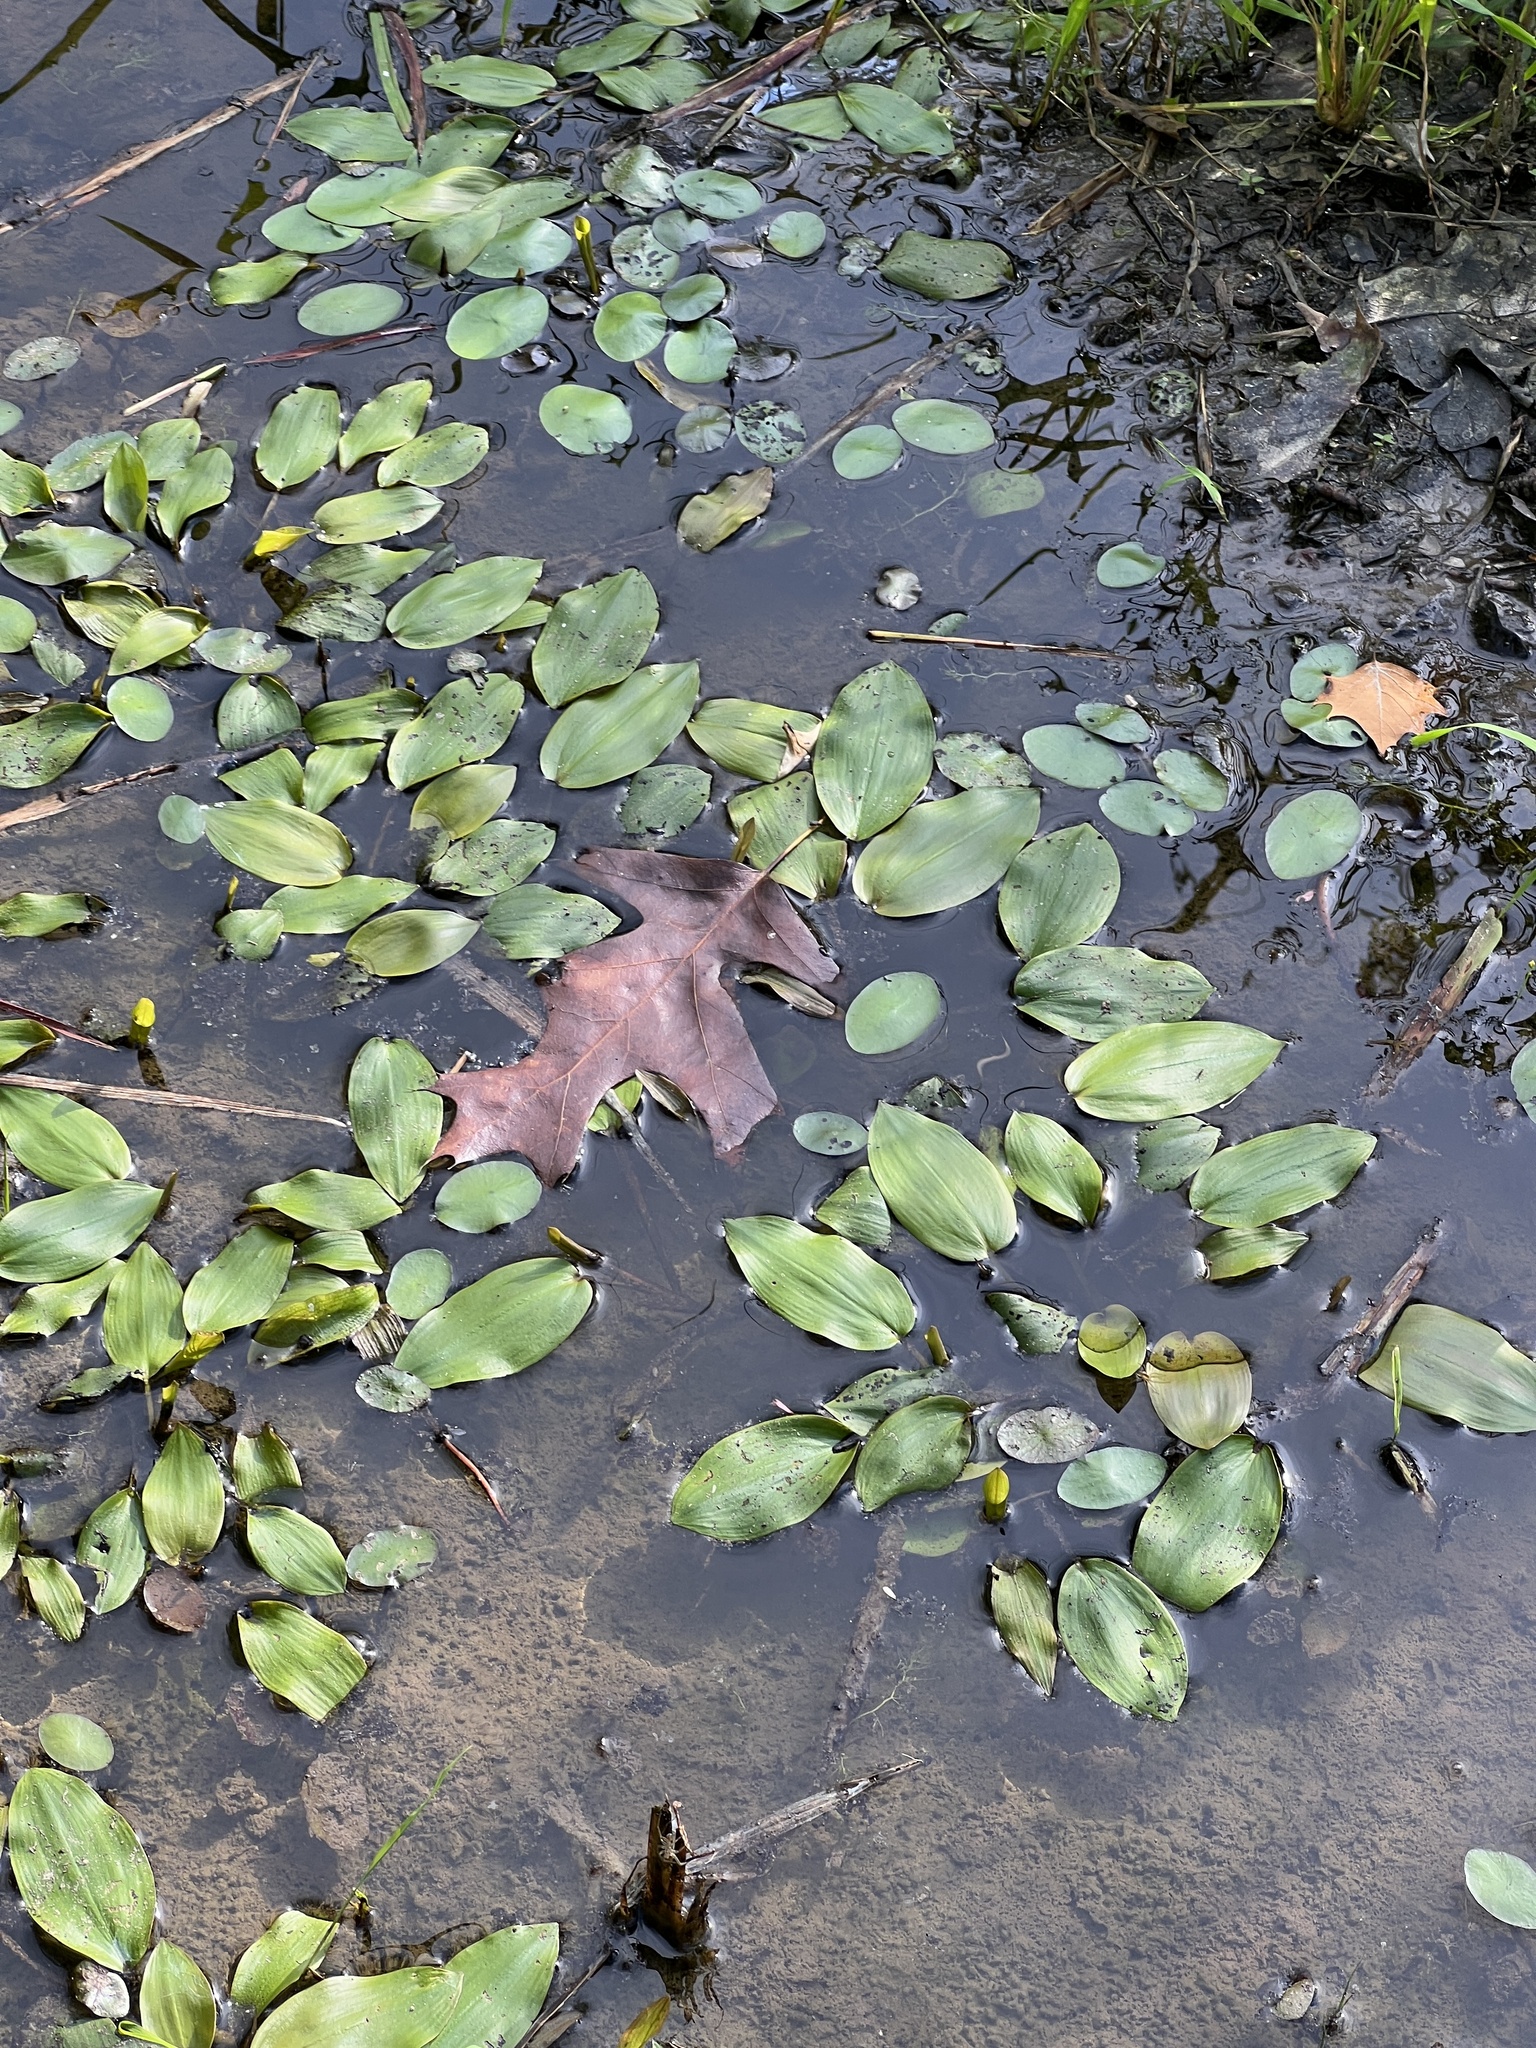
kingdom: Plantae
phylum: Tracheophyta
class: Liliopsida
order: Alismatales
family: Potamogetonaceae
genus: Potamogeton
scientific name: Potamogeton pulcher
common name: Heart-leaved pondweed
